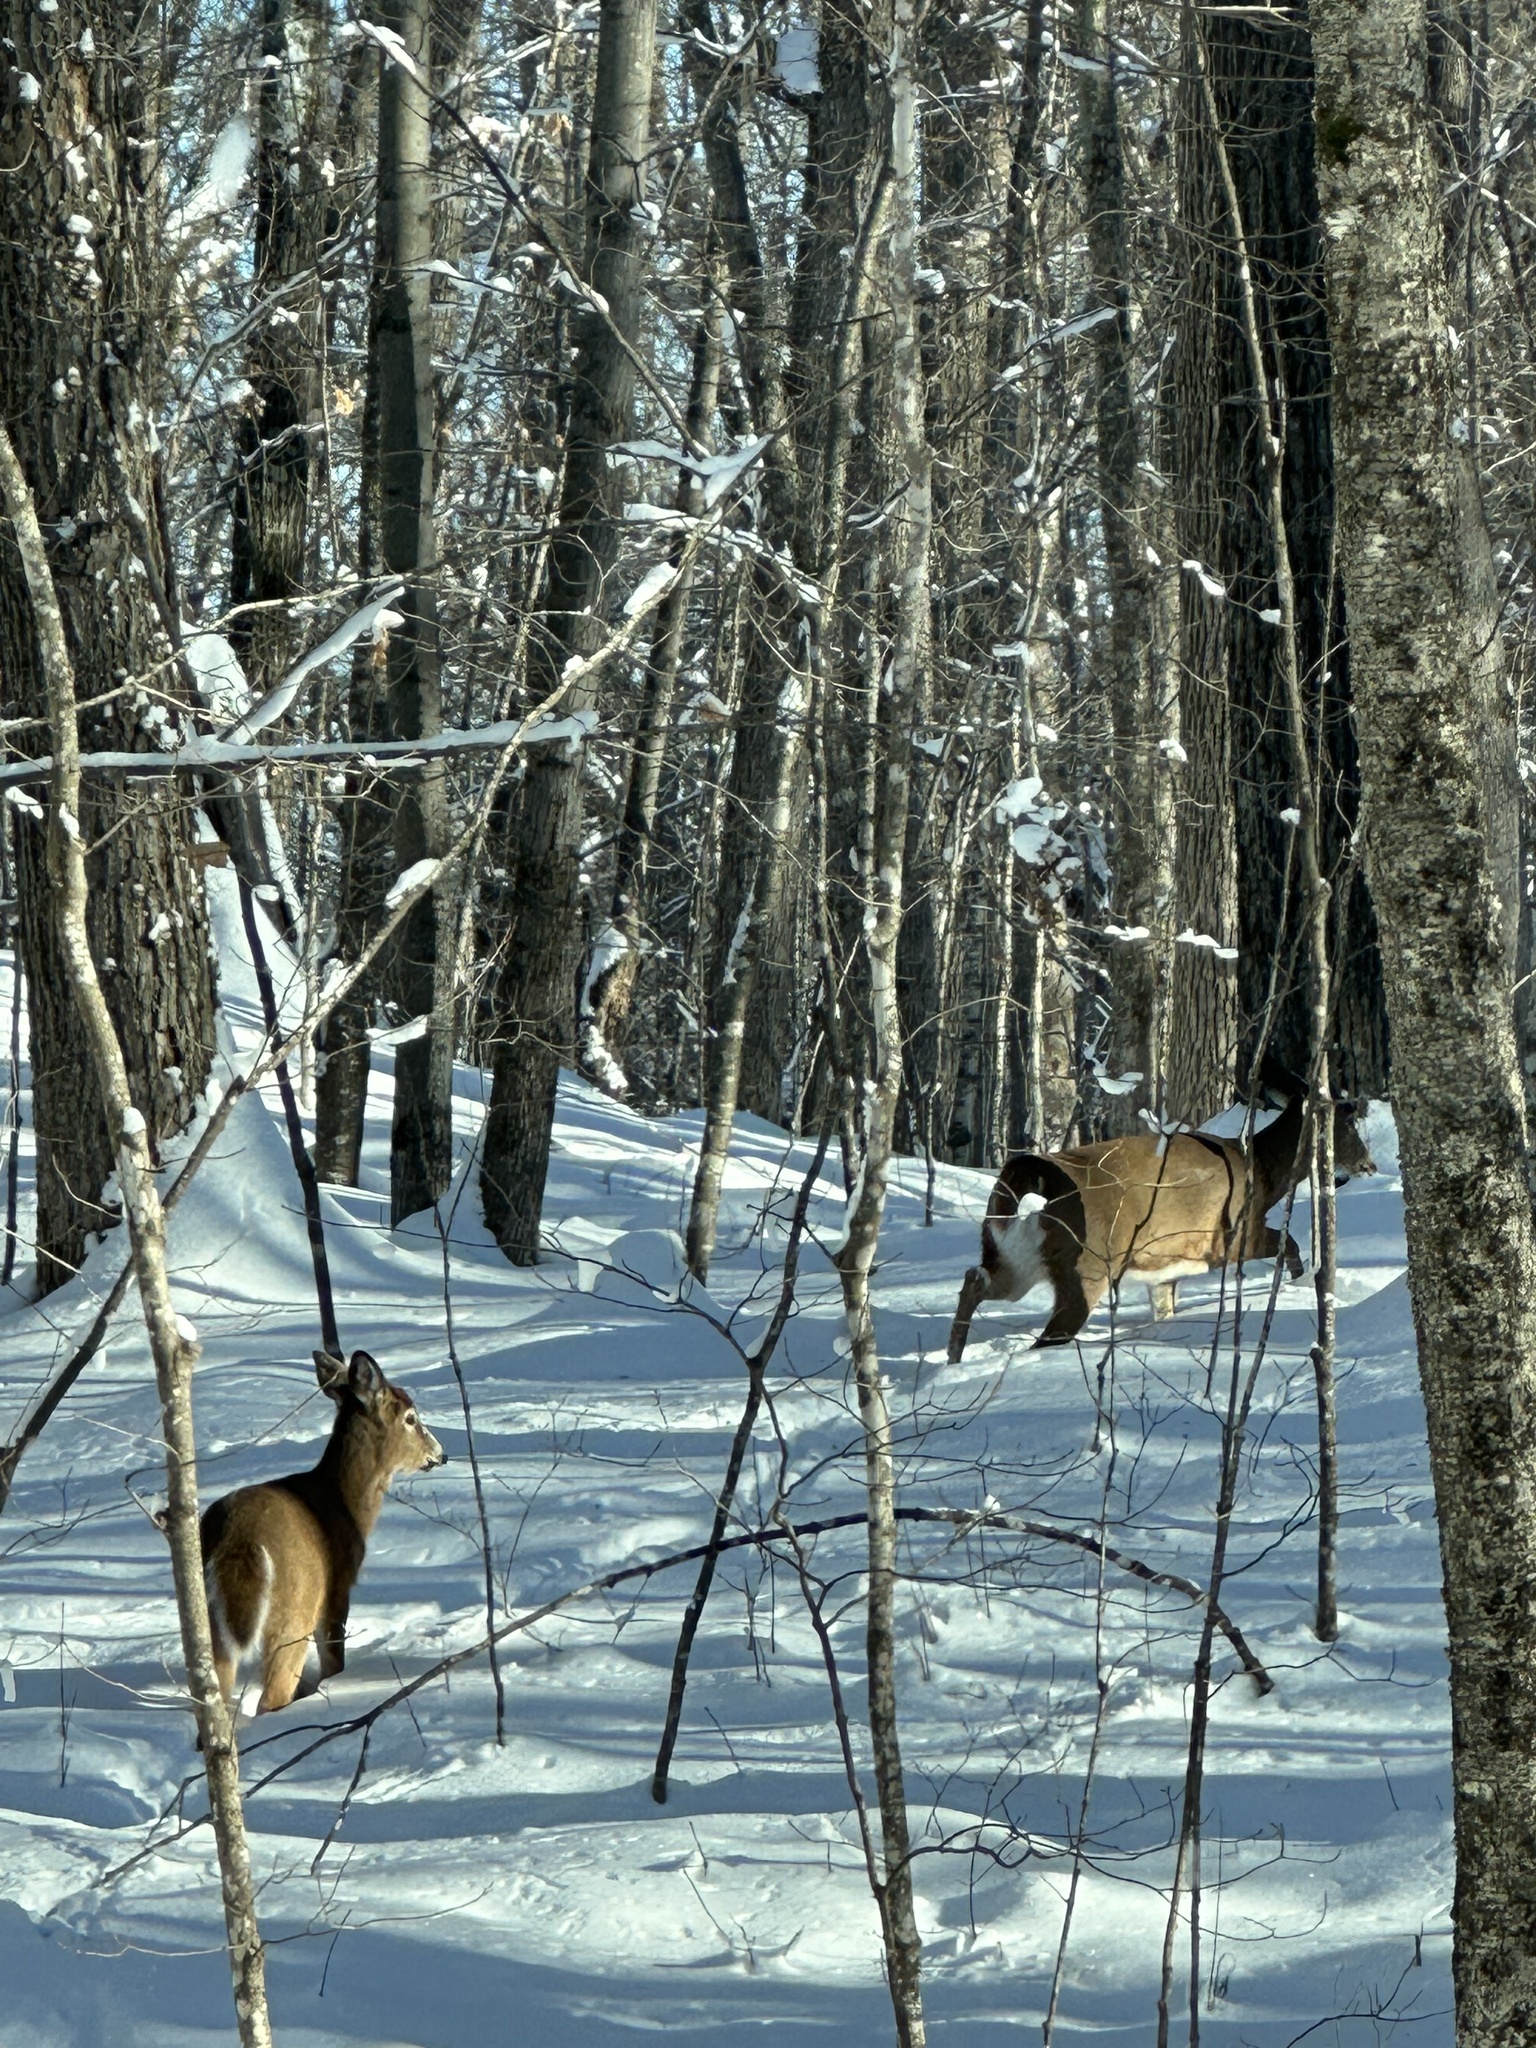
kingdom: Animalia
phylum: Chordata
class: Mammalia
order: Artiodactyla
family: Cervidae
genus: Odocoileus
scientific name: Odocoileus virginianus
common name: White-tailed deer
